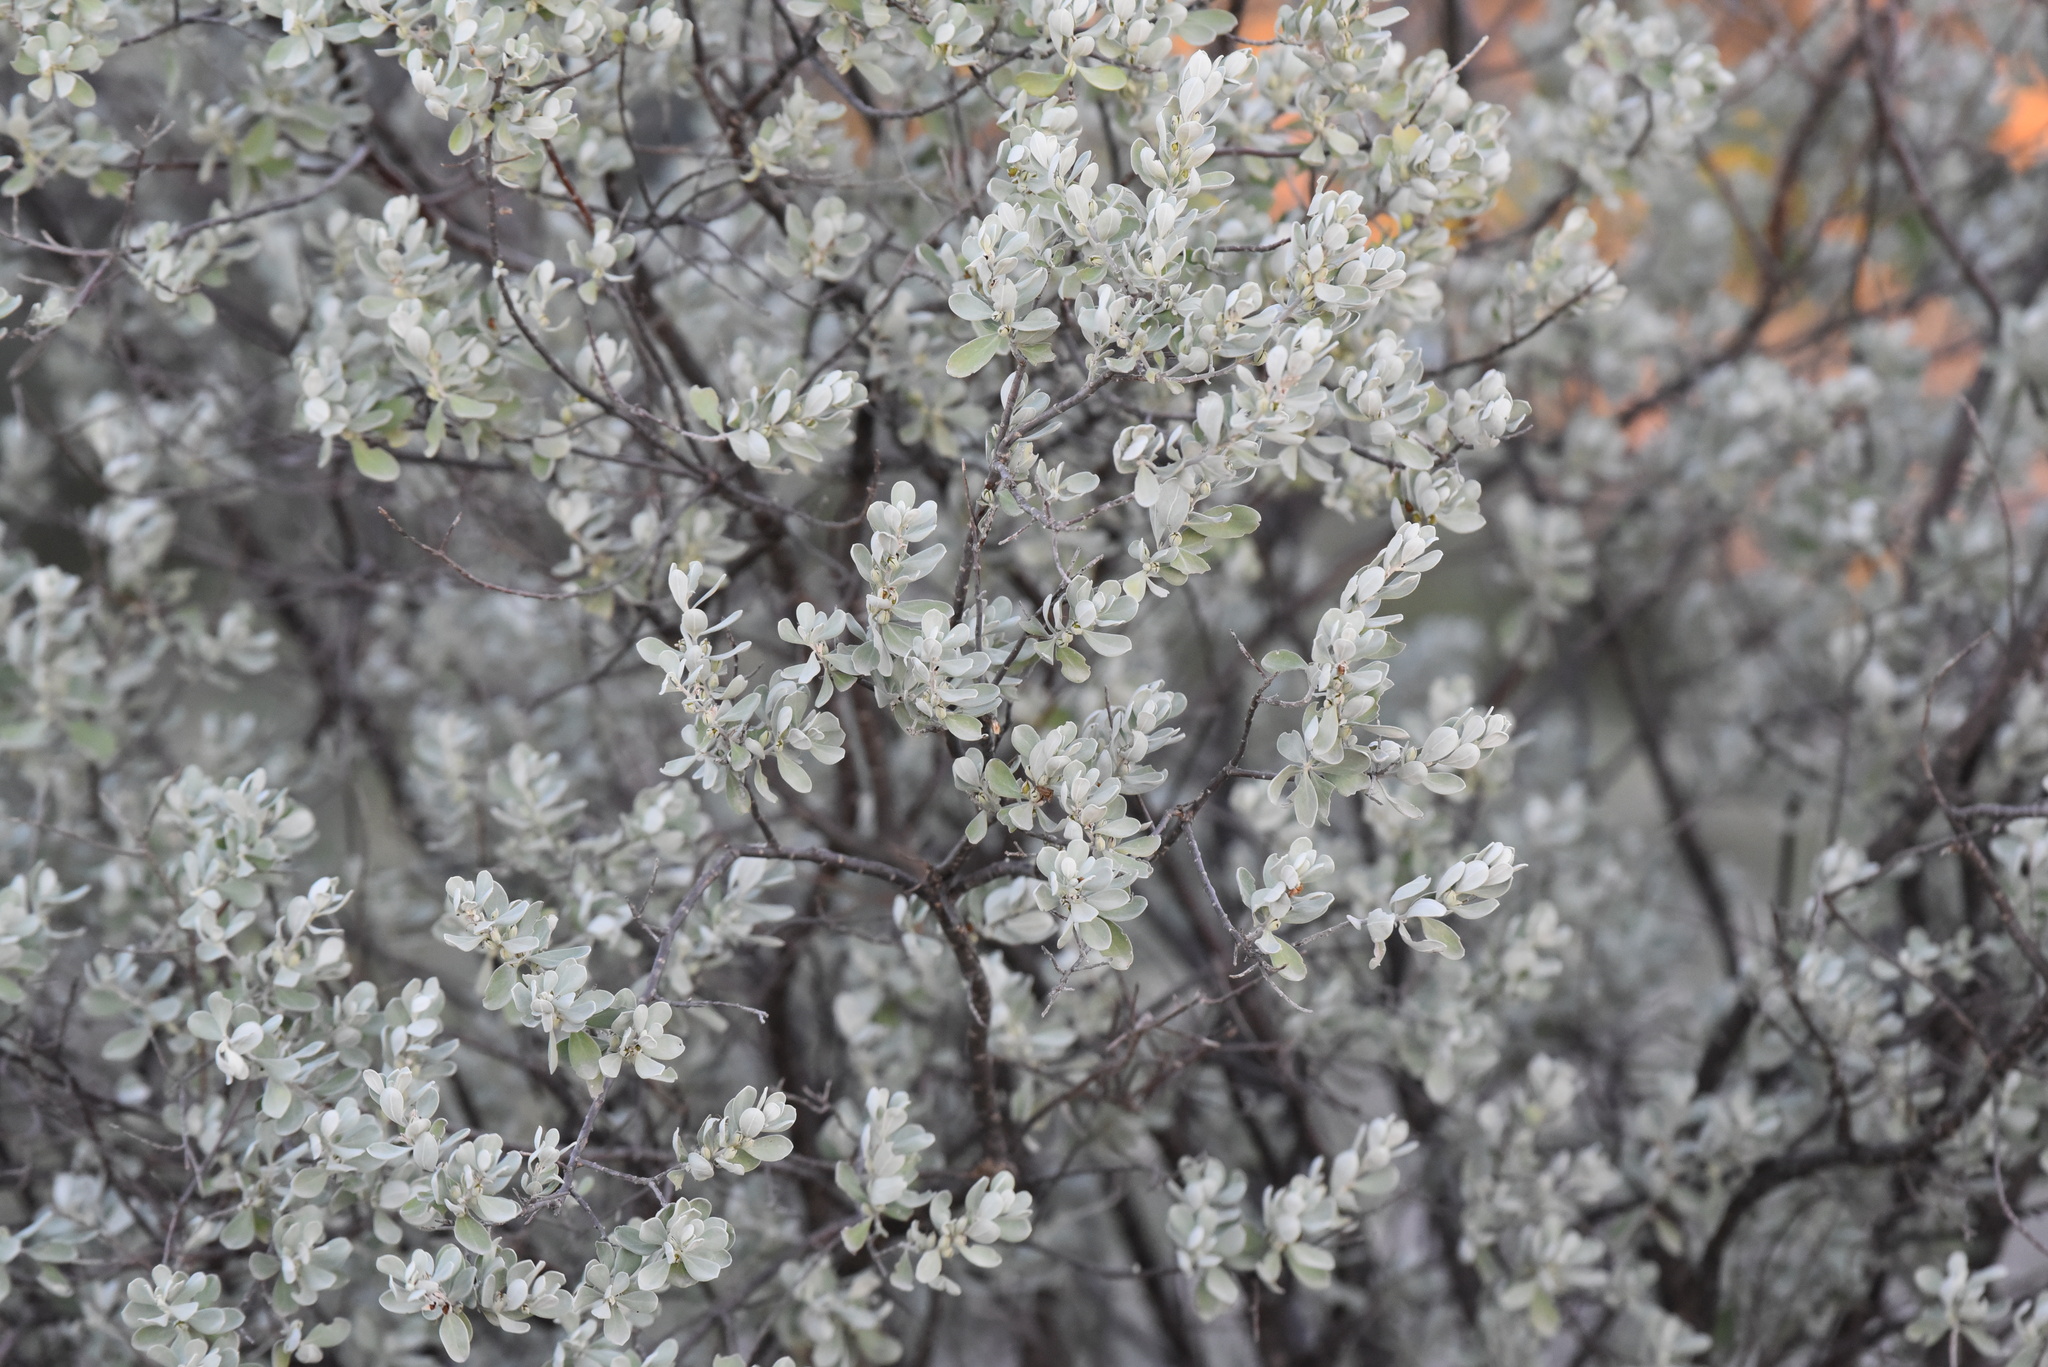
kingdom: Plantae
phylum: Tracheophyta
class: Magnoliopsida
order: Lamiales
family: Scrophulariaceae
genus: Leucophyllum
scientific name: Leucophyllum frutescens
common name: Texas silverleaf
